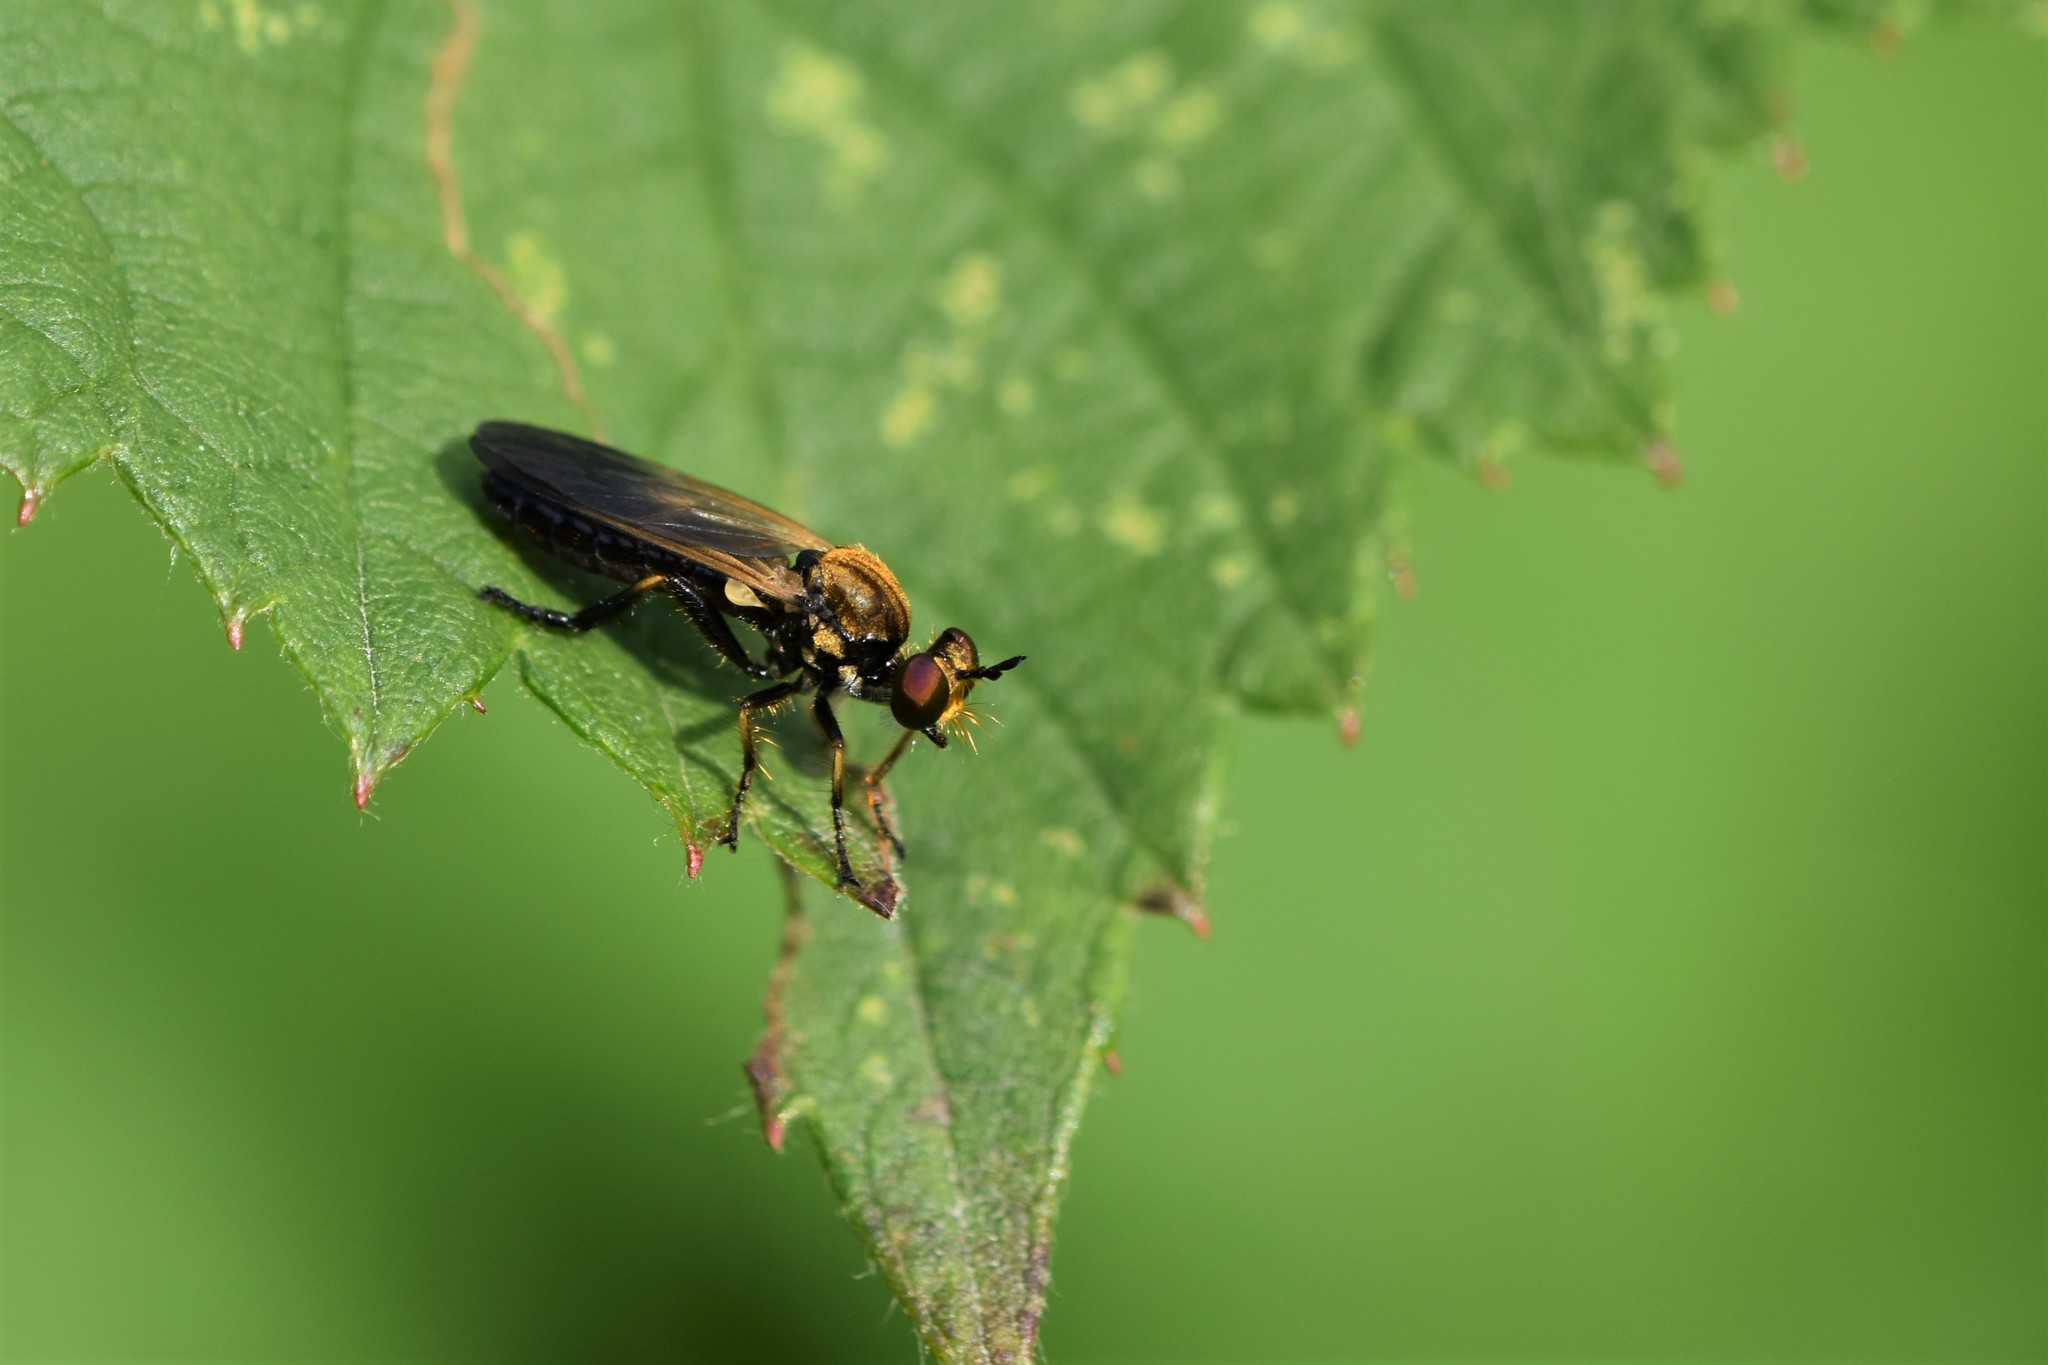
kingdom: Animalia
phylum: Arthropoda
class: Insecta
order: Diptera
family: Asilidae
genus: Eudioctria
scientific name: Eudioctria sackeni
